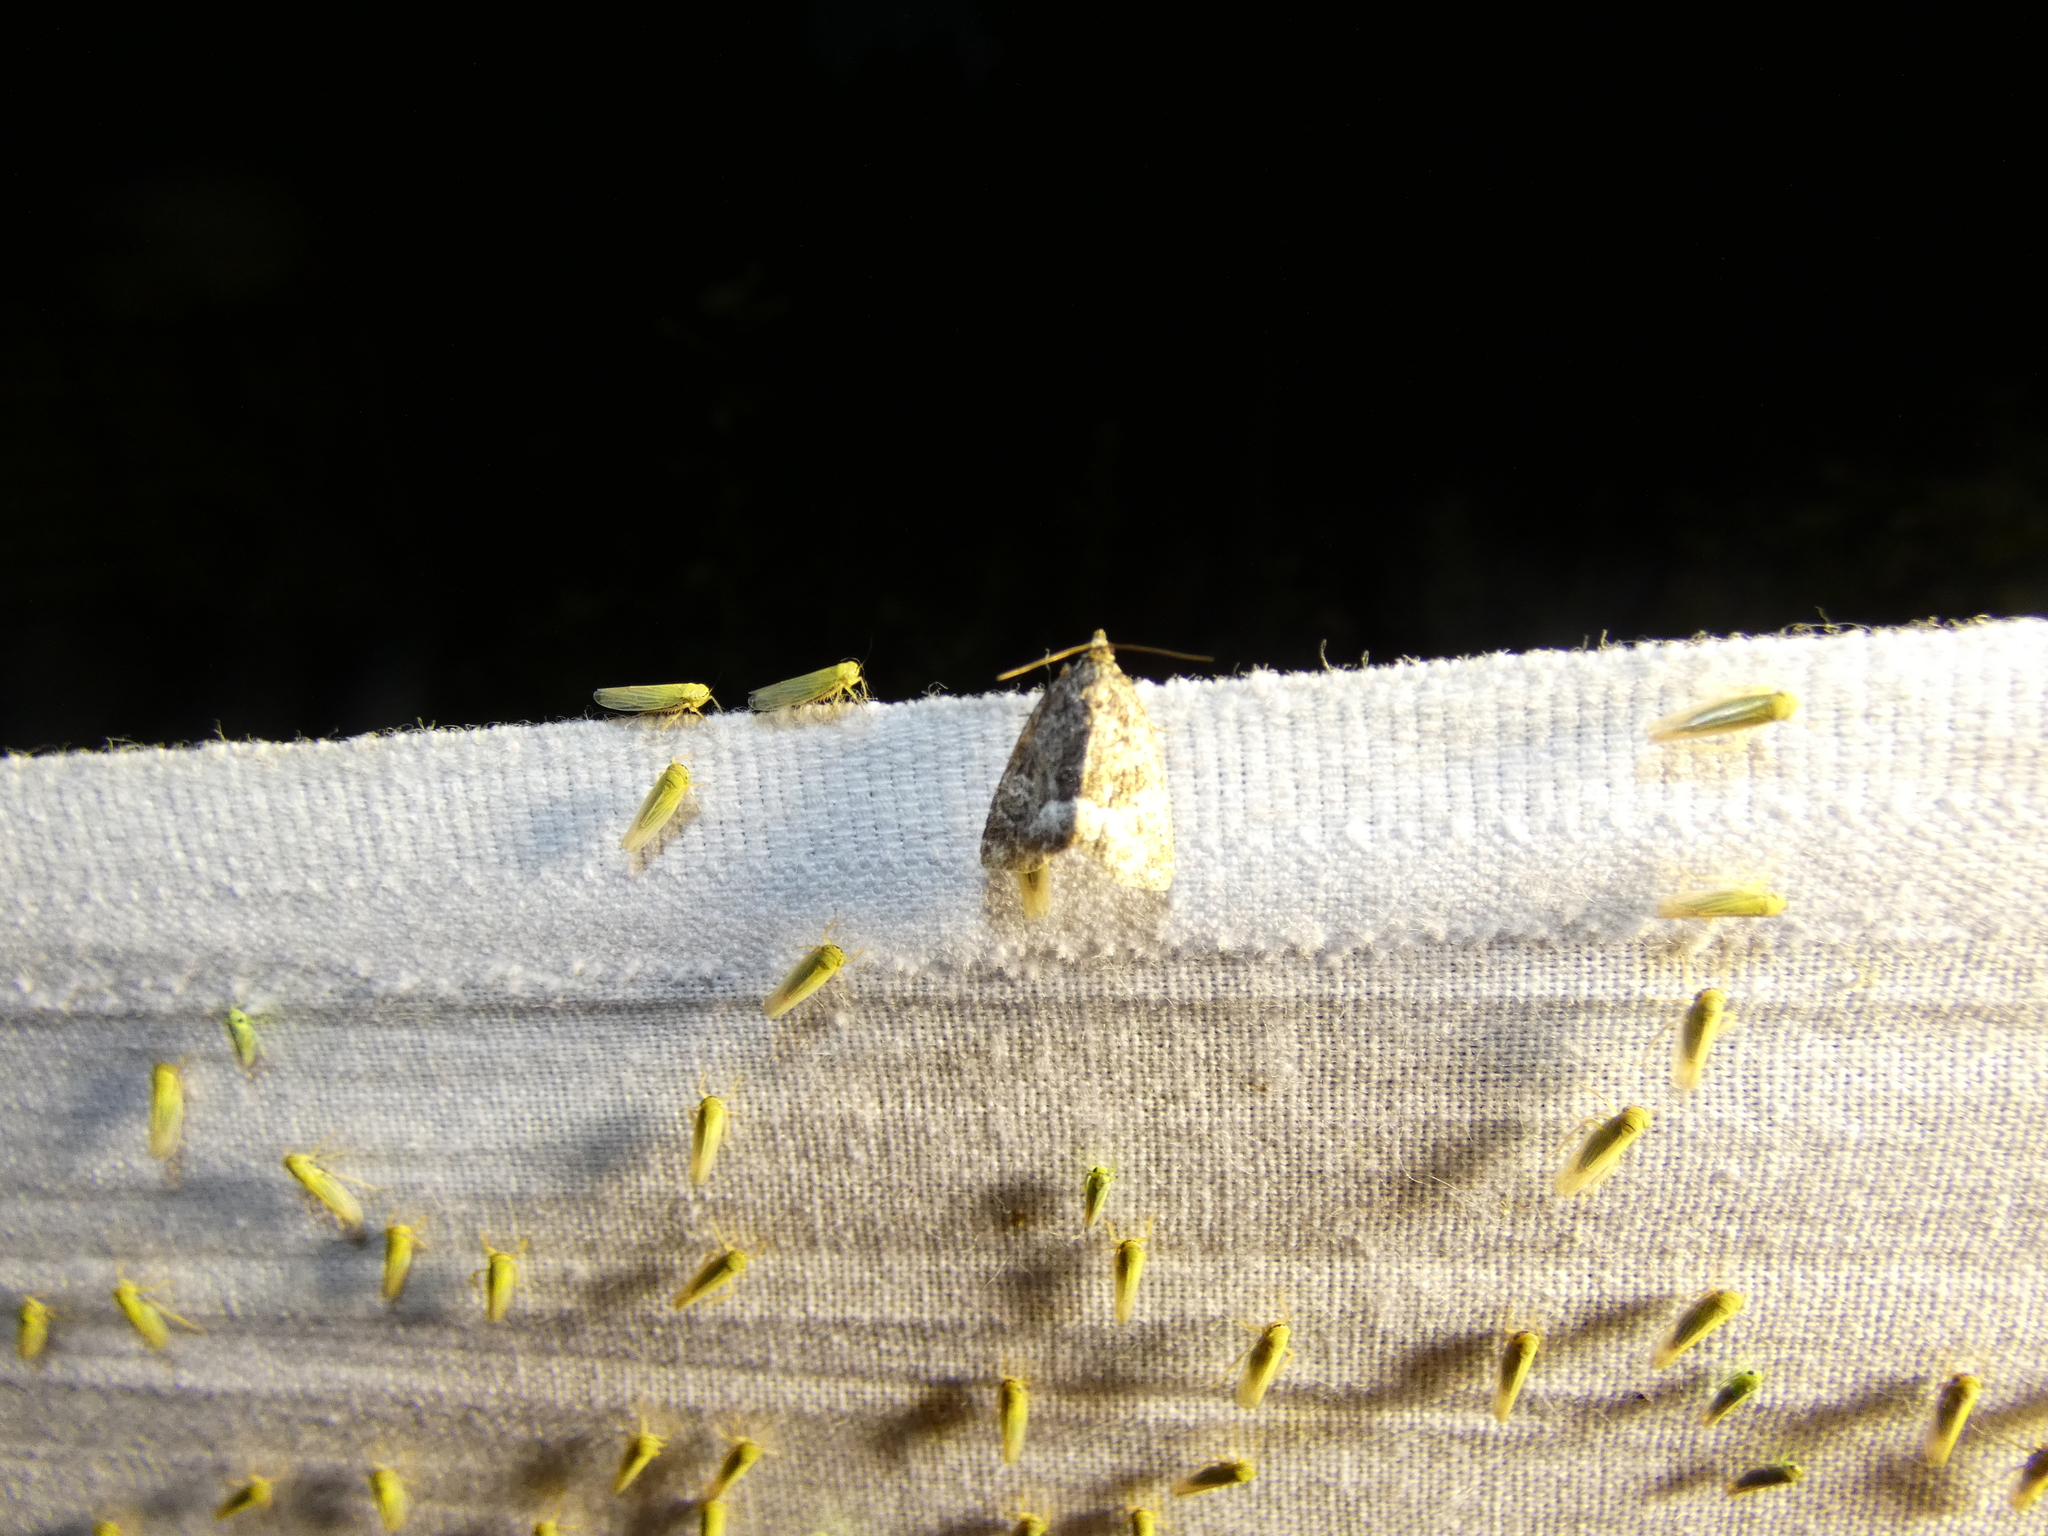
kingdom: Animalia
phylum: Arthropoda
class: Insecta
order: Lepidoptera
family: Noctuidae
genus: Deltote
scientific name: Deltote pygarga
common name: Marbled white spot
